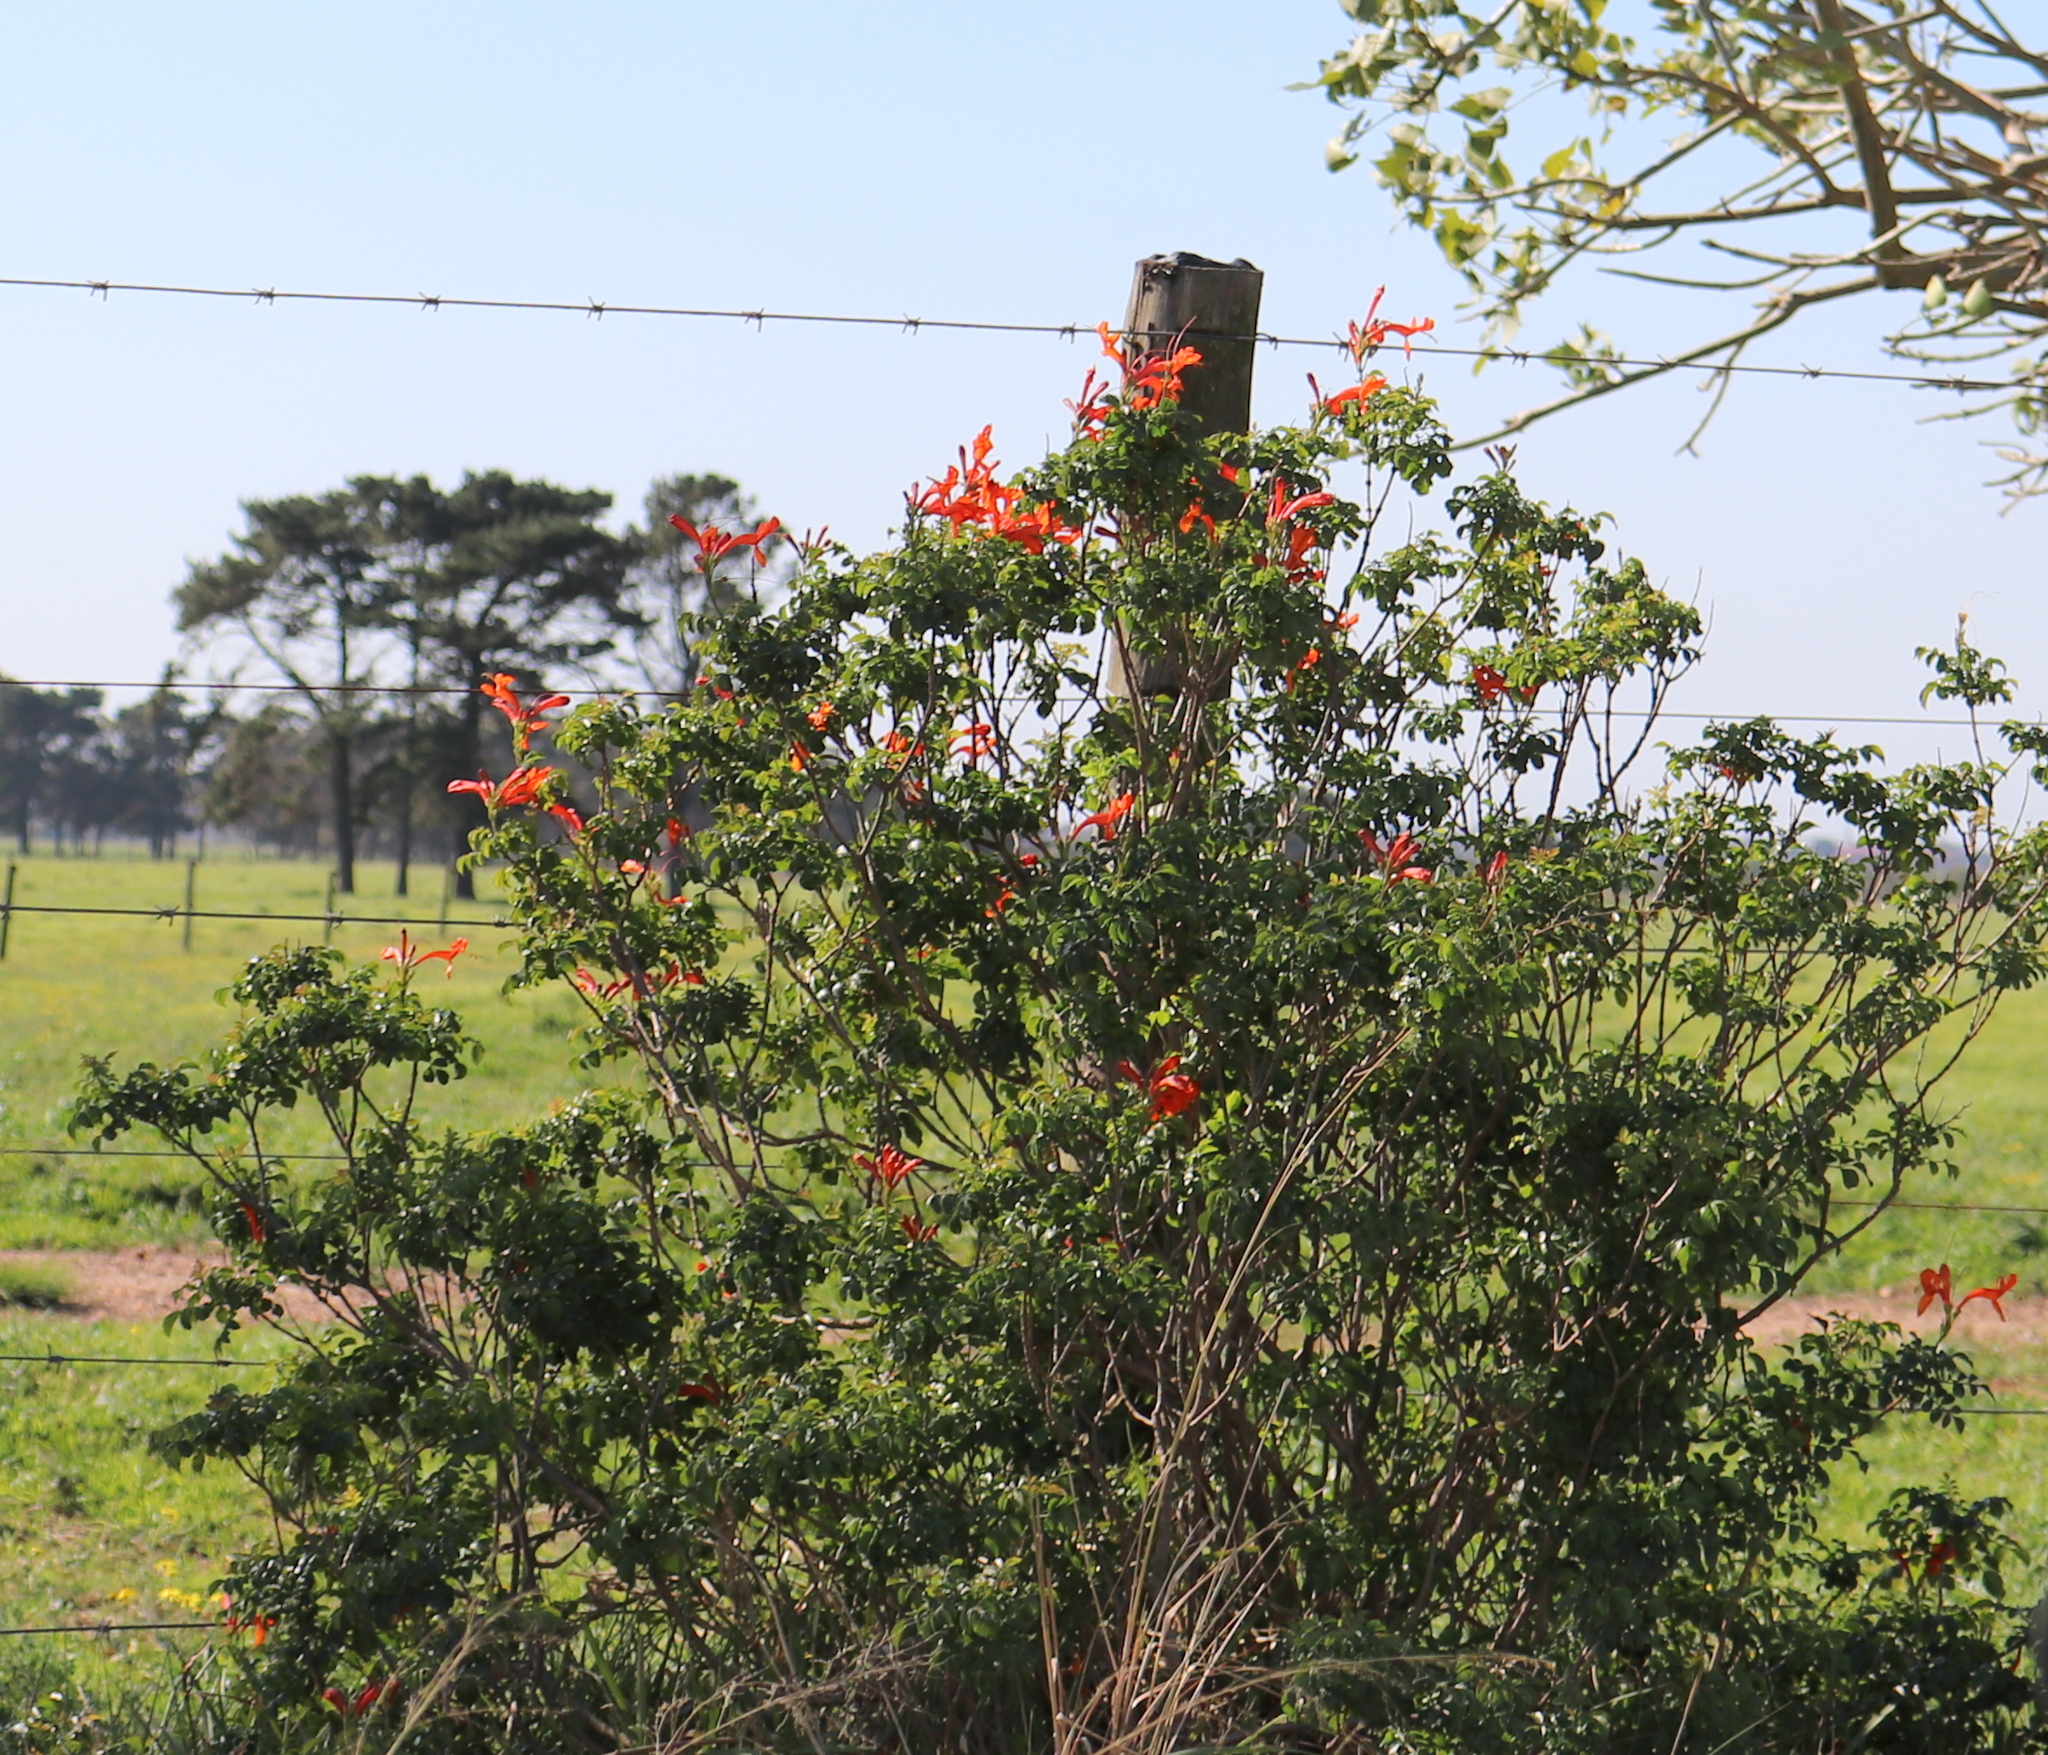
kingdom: Plantae
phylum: Tracheophyta
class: Magnoliopsida
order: Lamiales
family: Bignoniaceae
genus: Tecomaria
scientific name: Tecomaria capensis
